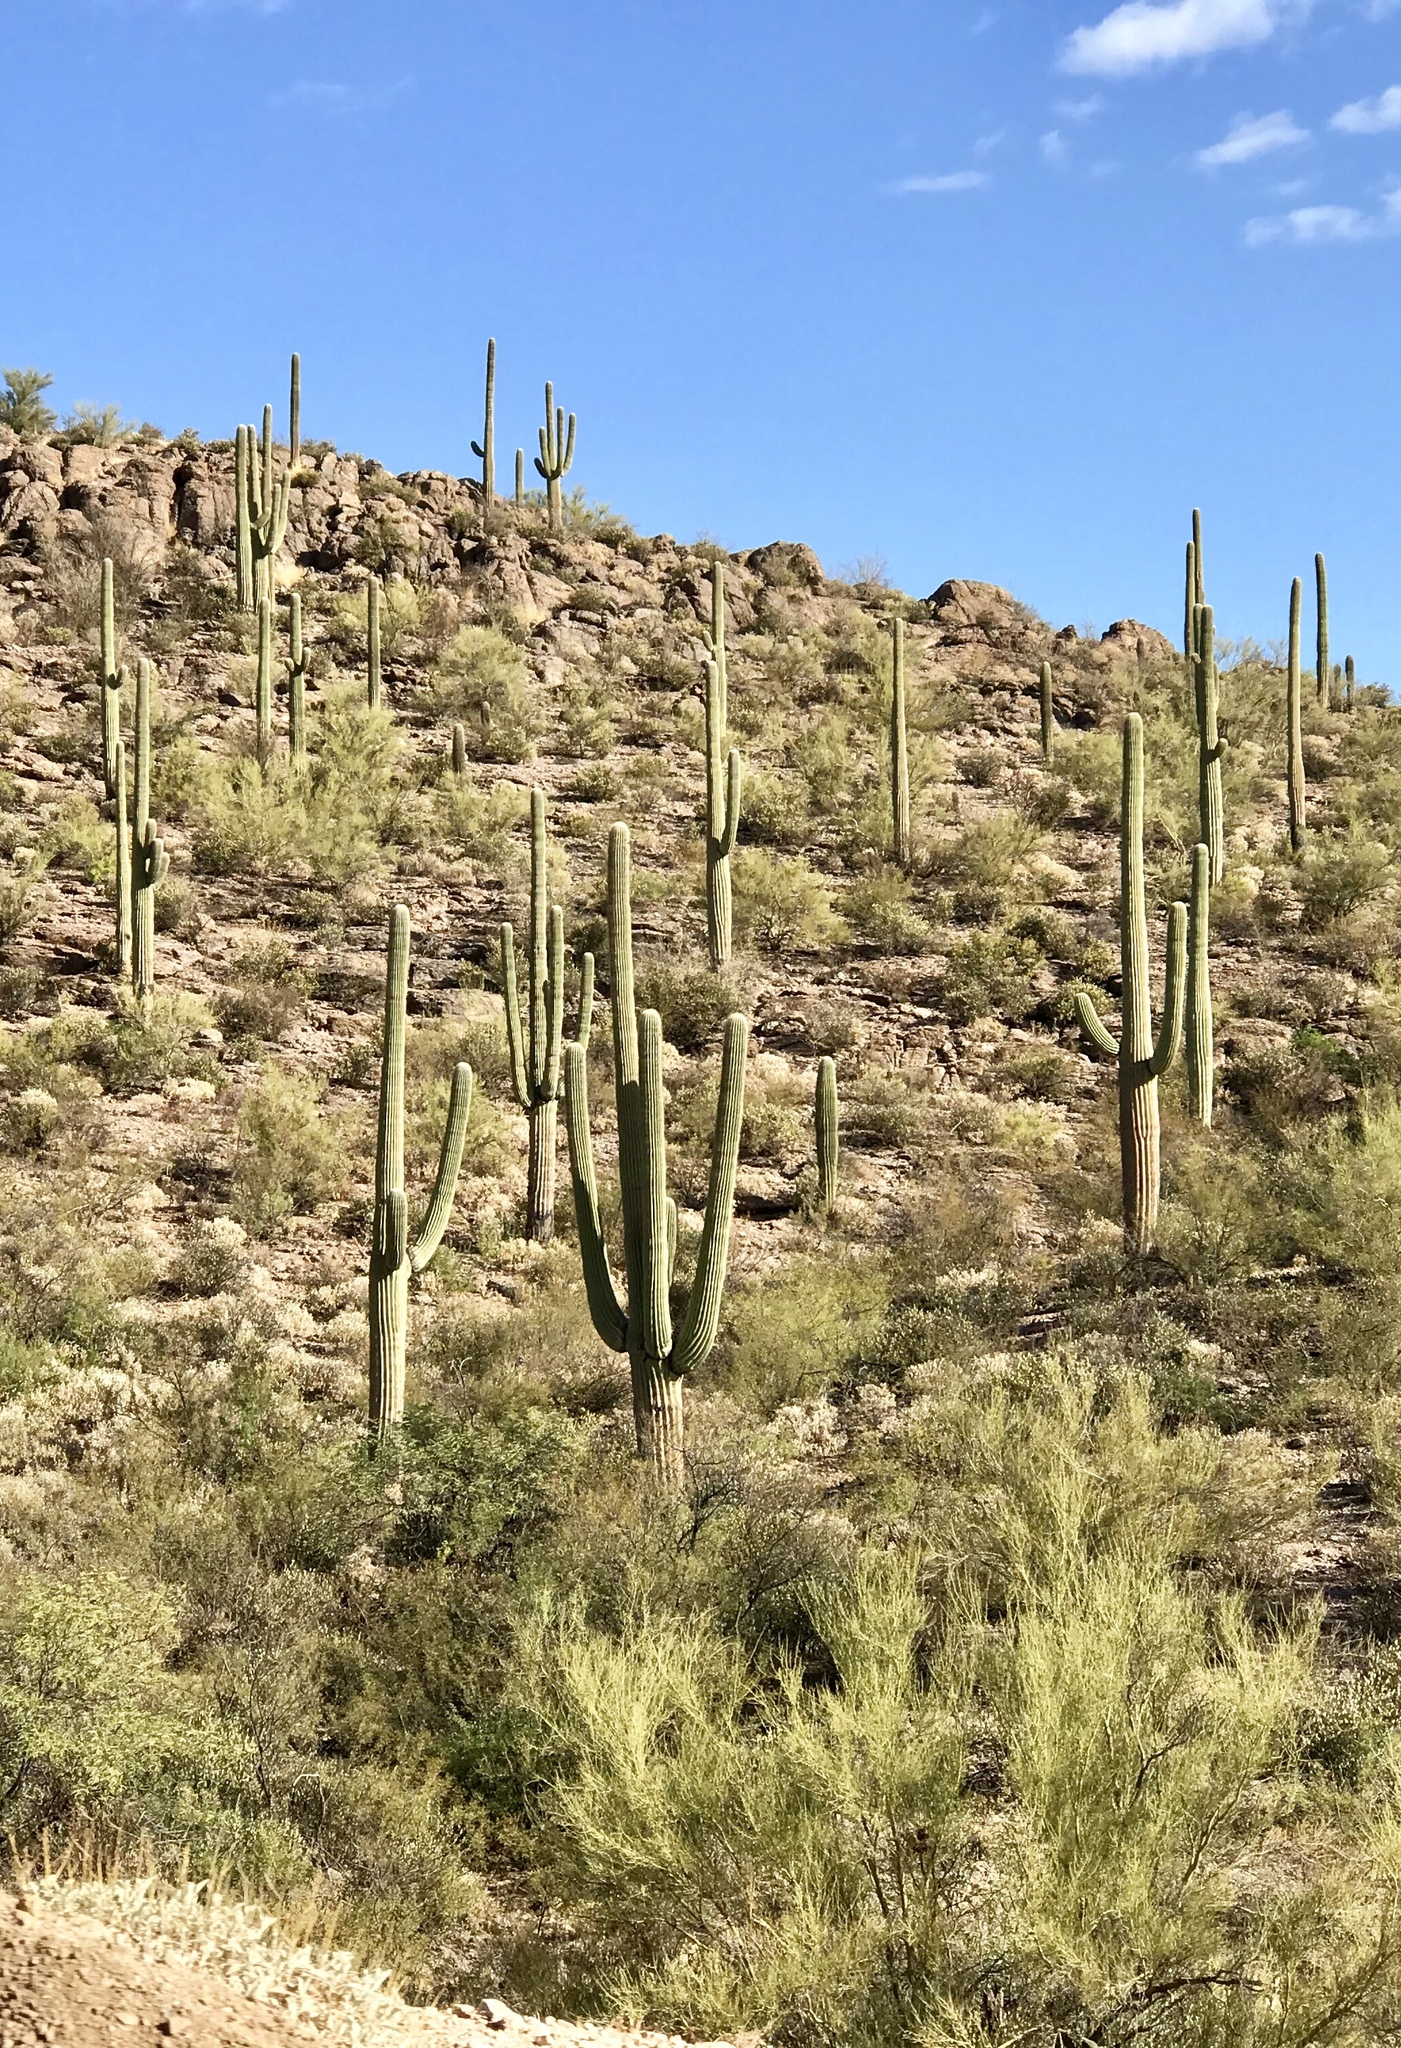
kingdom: Plantae
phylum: Tracheophyta
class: Magnoliopsida
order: Caryophyllales
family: Cactaceae
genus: Carnegiea
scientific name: Carnegiea gigantea
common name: Saguaro
